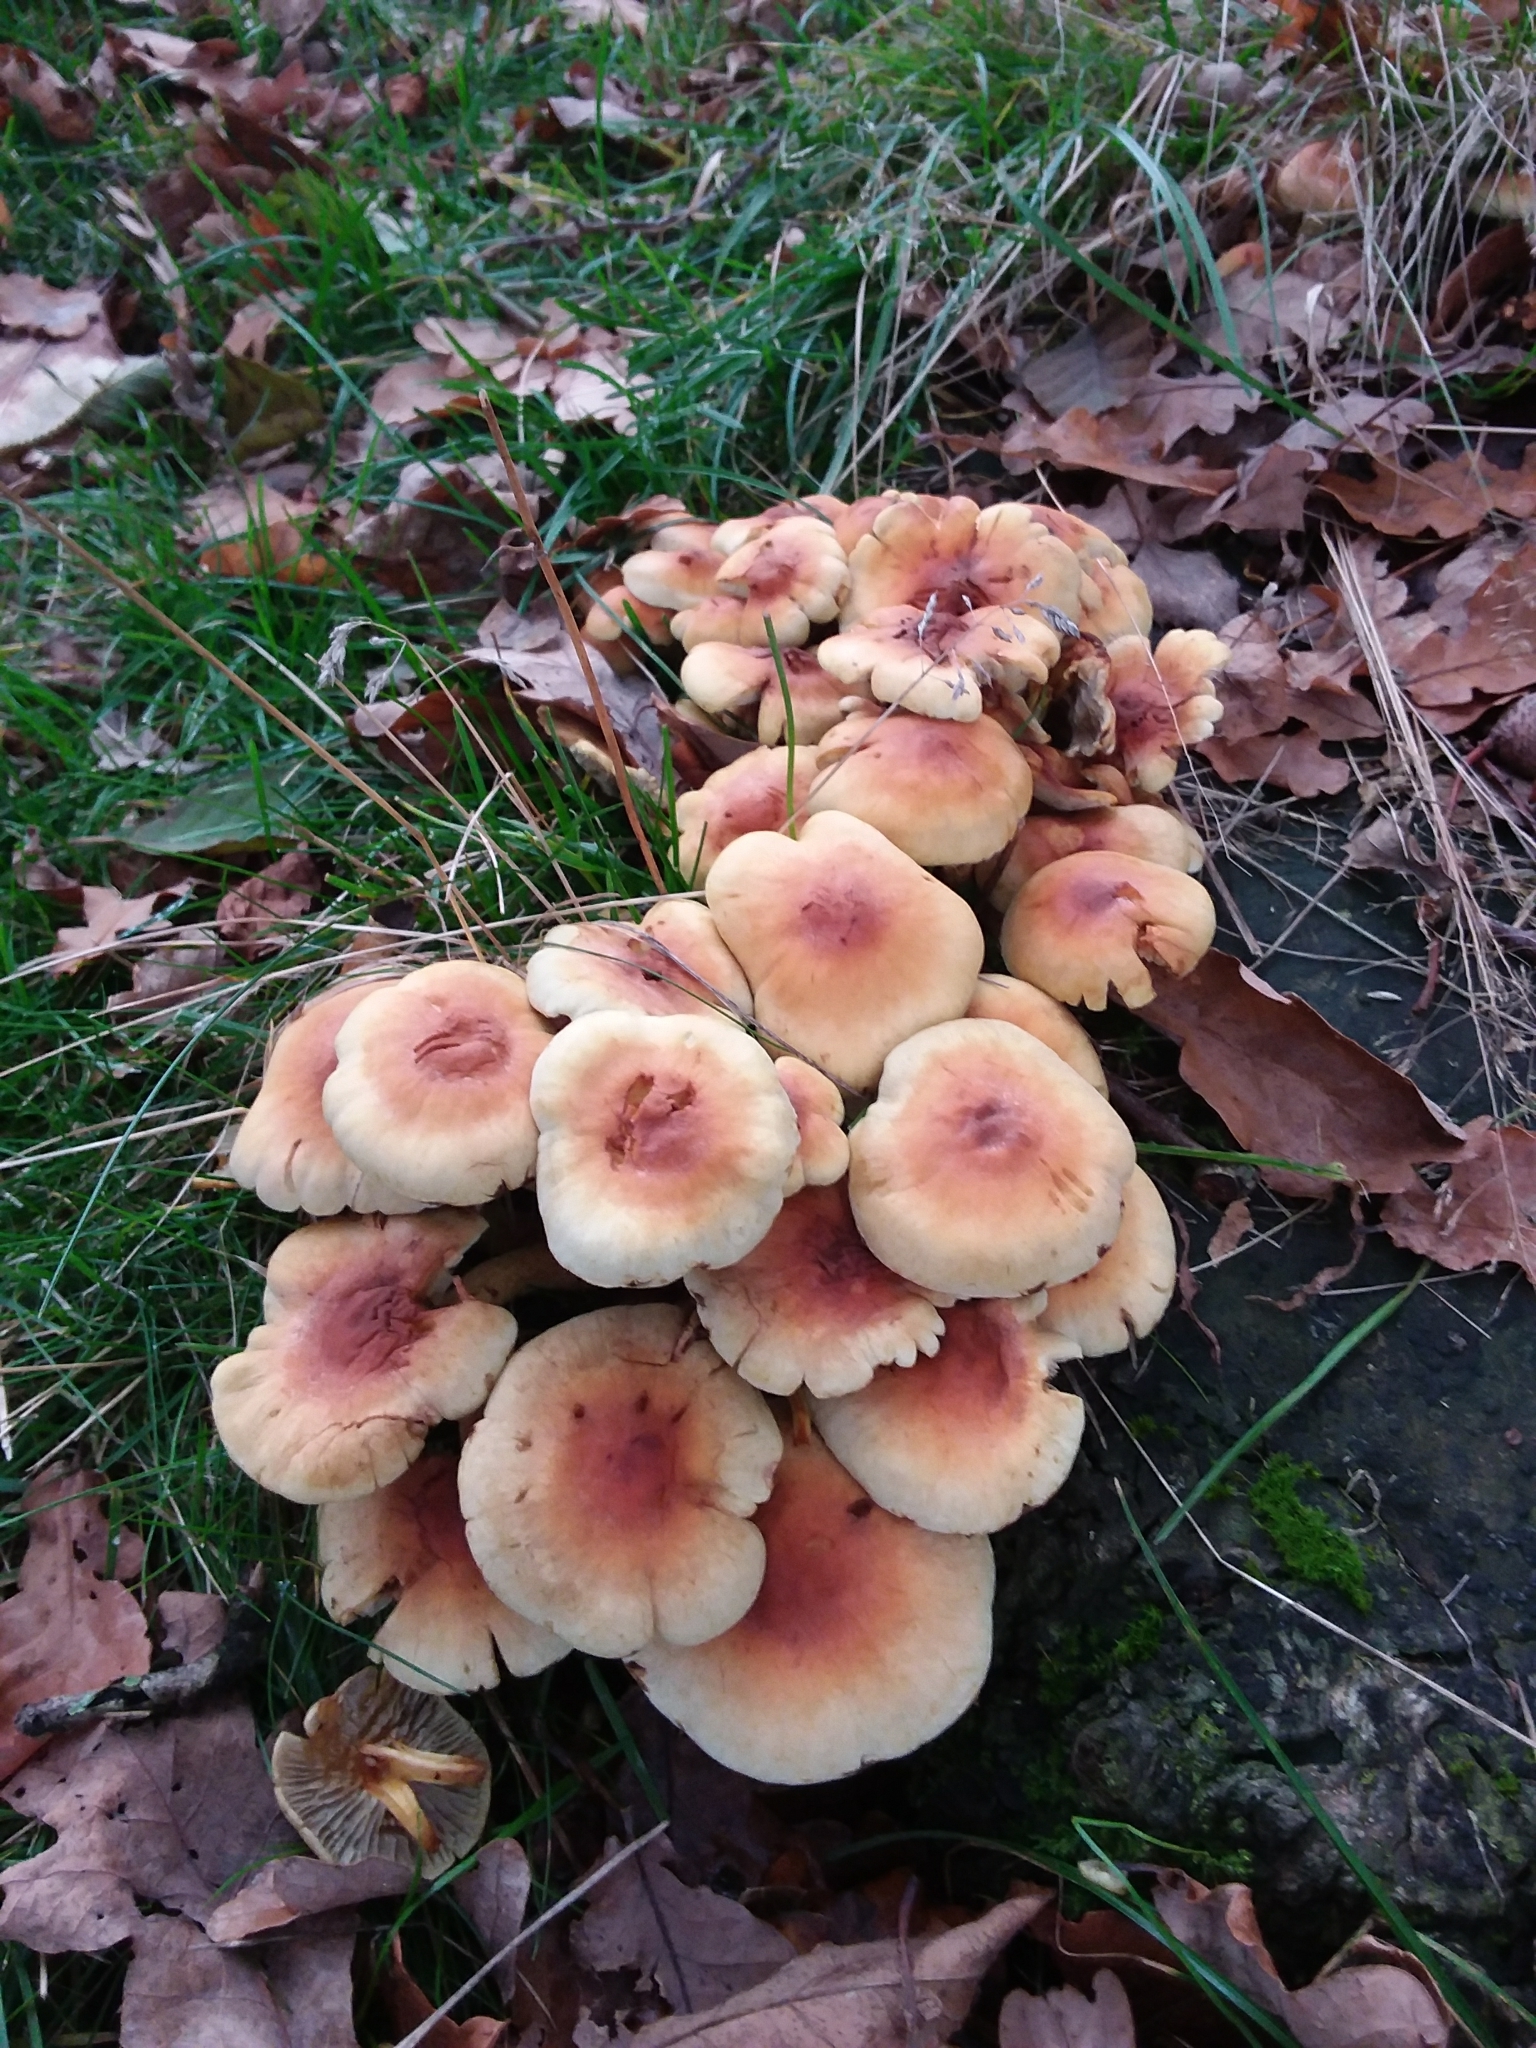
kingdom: Fungi
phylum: Basidiomycota
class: Agaricomycetes
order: Agaricales
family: Strophariaceae
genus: Hypholoma
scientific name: Hypholoma fasciculare
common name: Sulphur tuft
